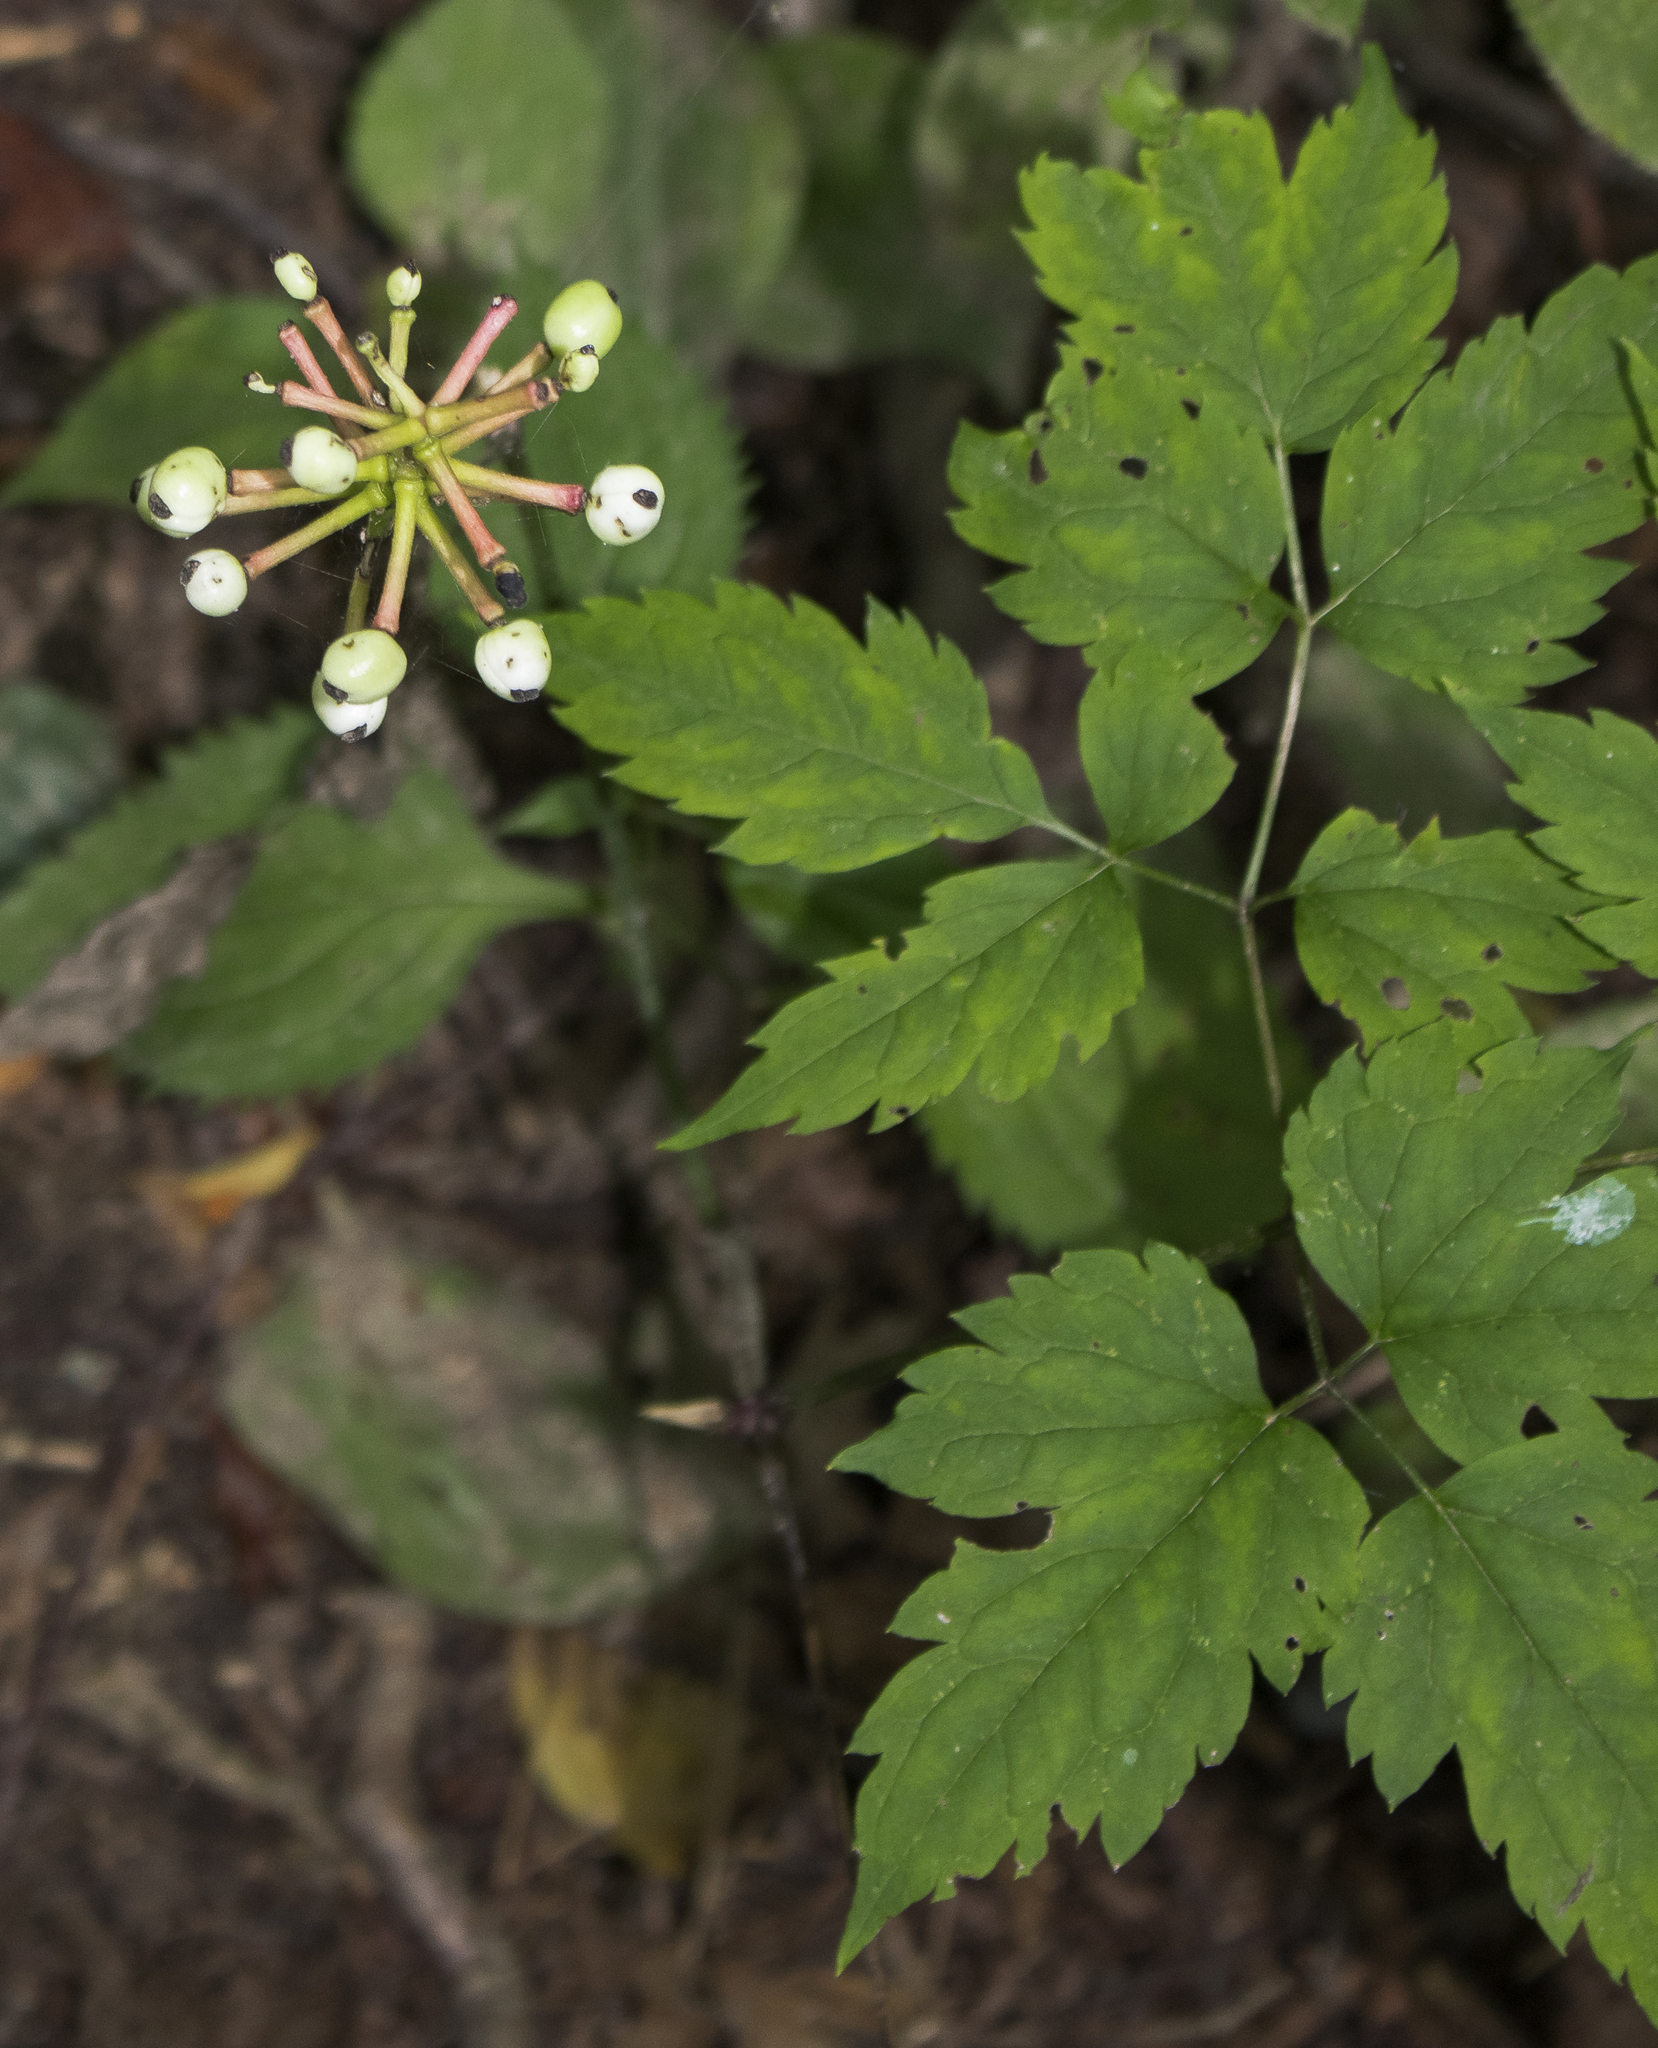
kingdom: Plantae
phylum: Tracheophyta
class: Magnoliopsida
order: Ranunculales
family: Ranunculaceae
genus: Actaea
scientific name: Actaea pachypoda
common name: Doll's-eyes
